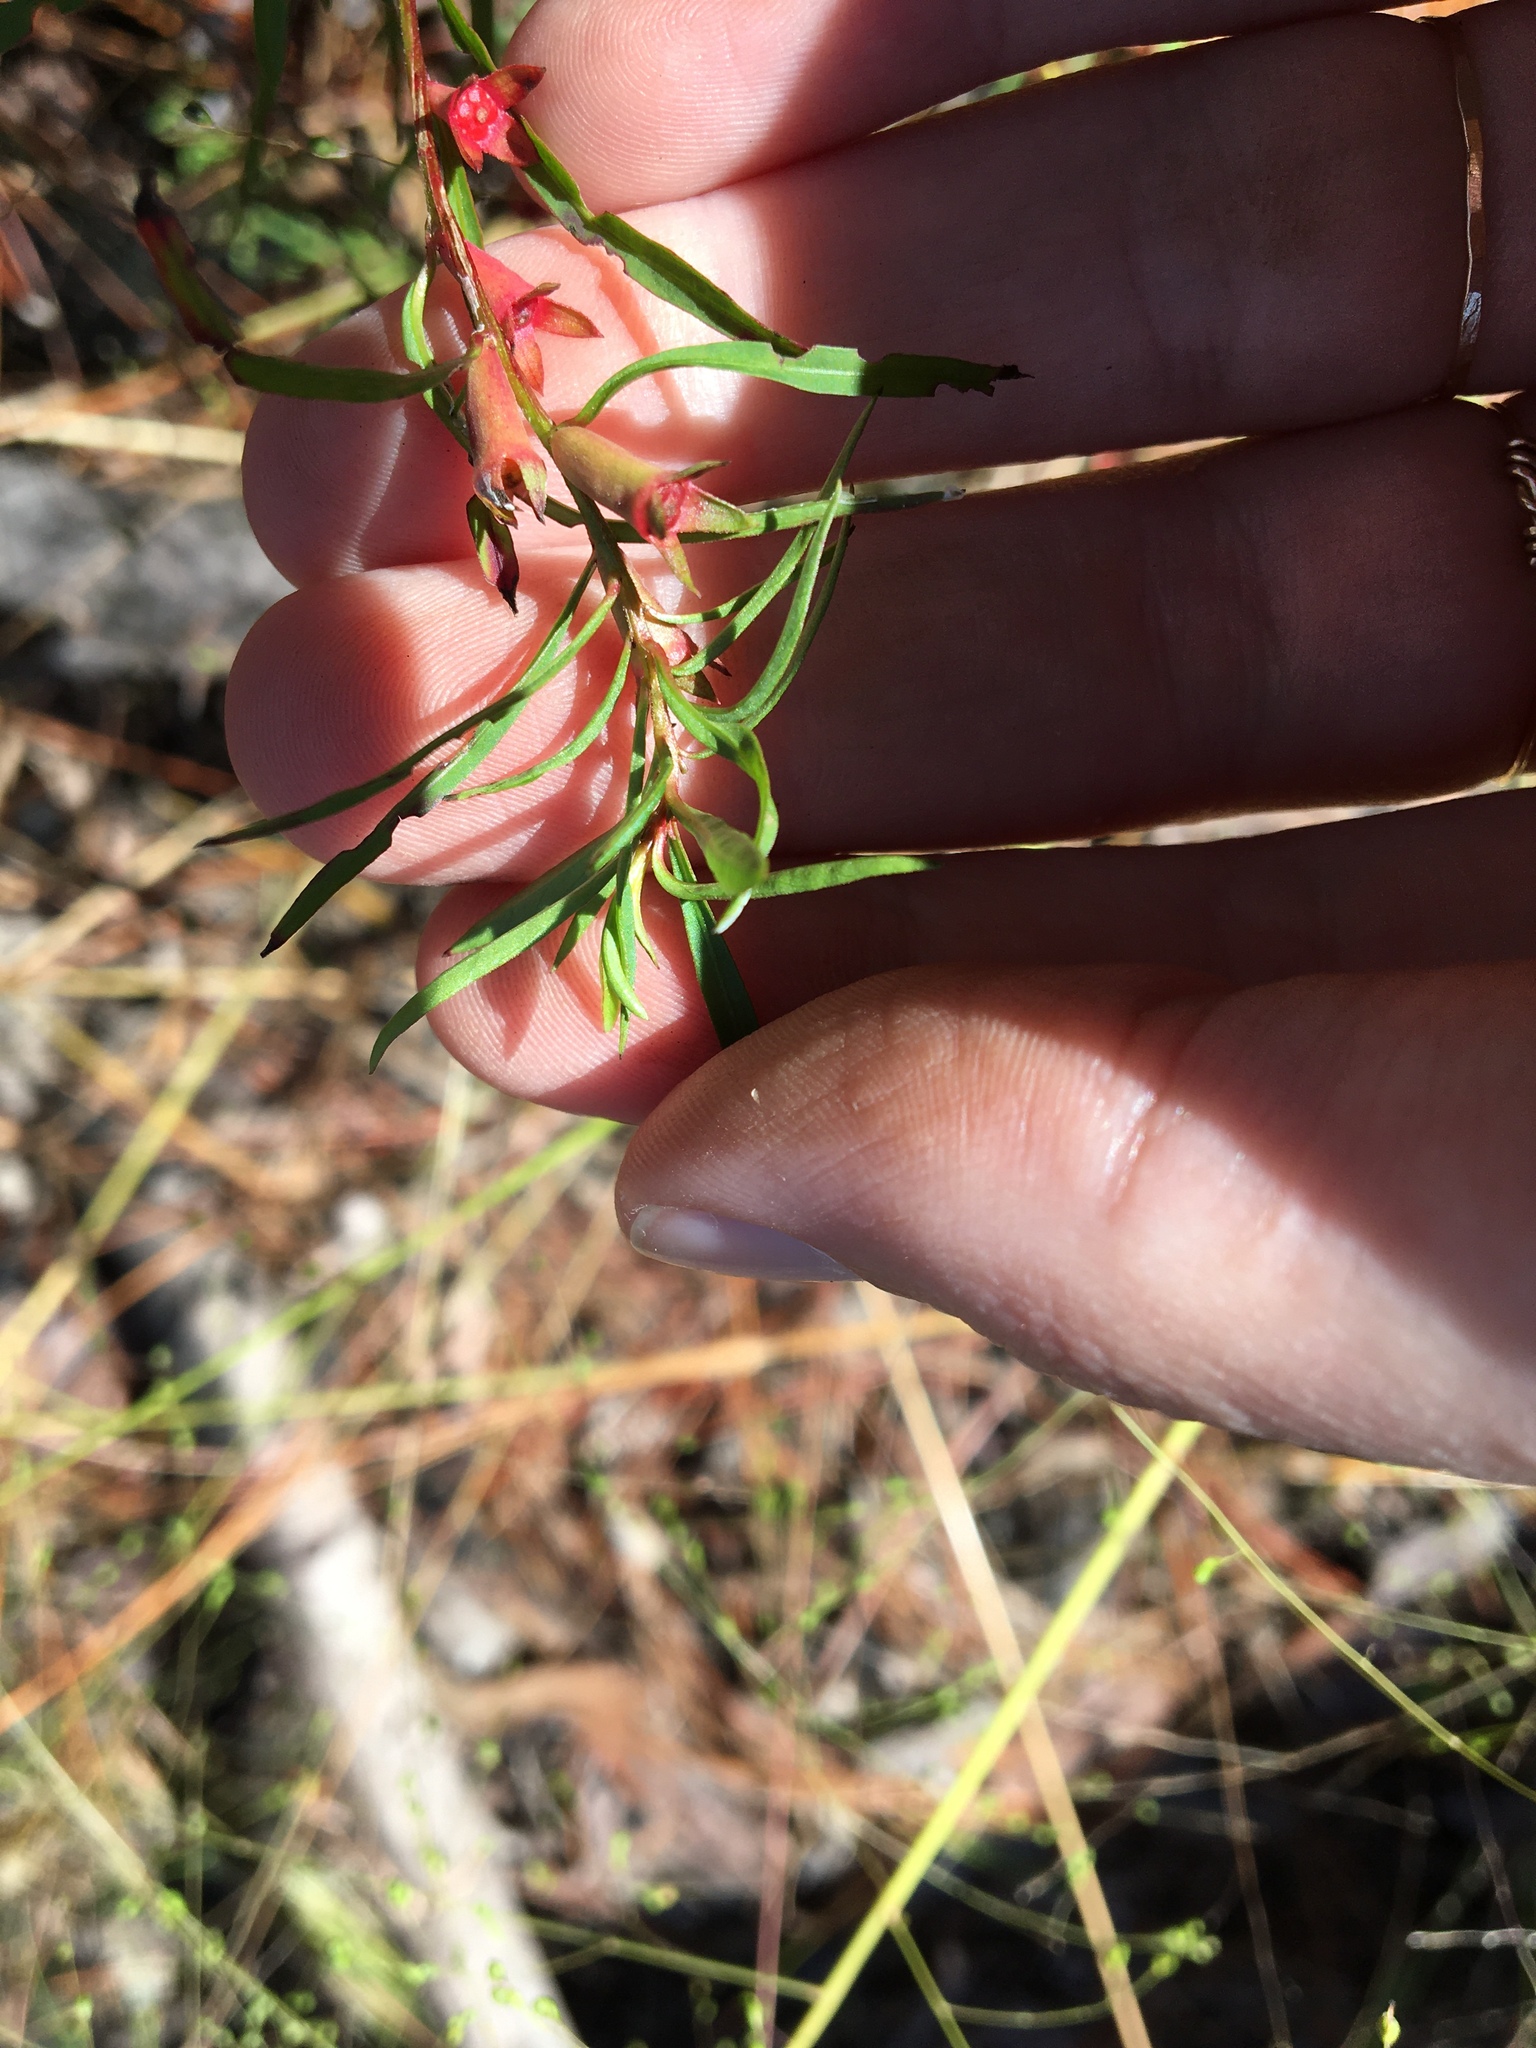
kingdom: Plantae
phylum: Tracheophyta
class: Magnoliopsida
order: Myrtales
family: Onagraceae
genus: Ludwigia
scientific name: Ludwigia linearis
